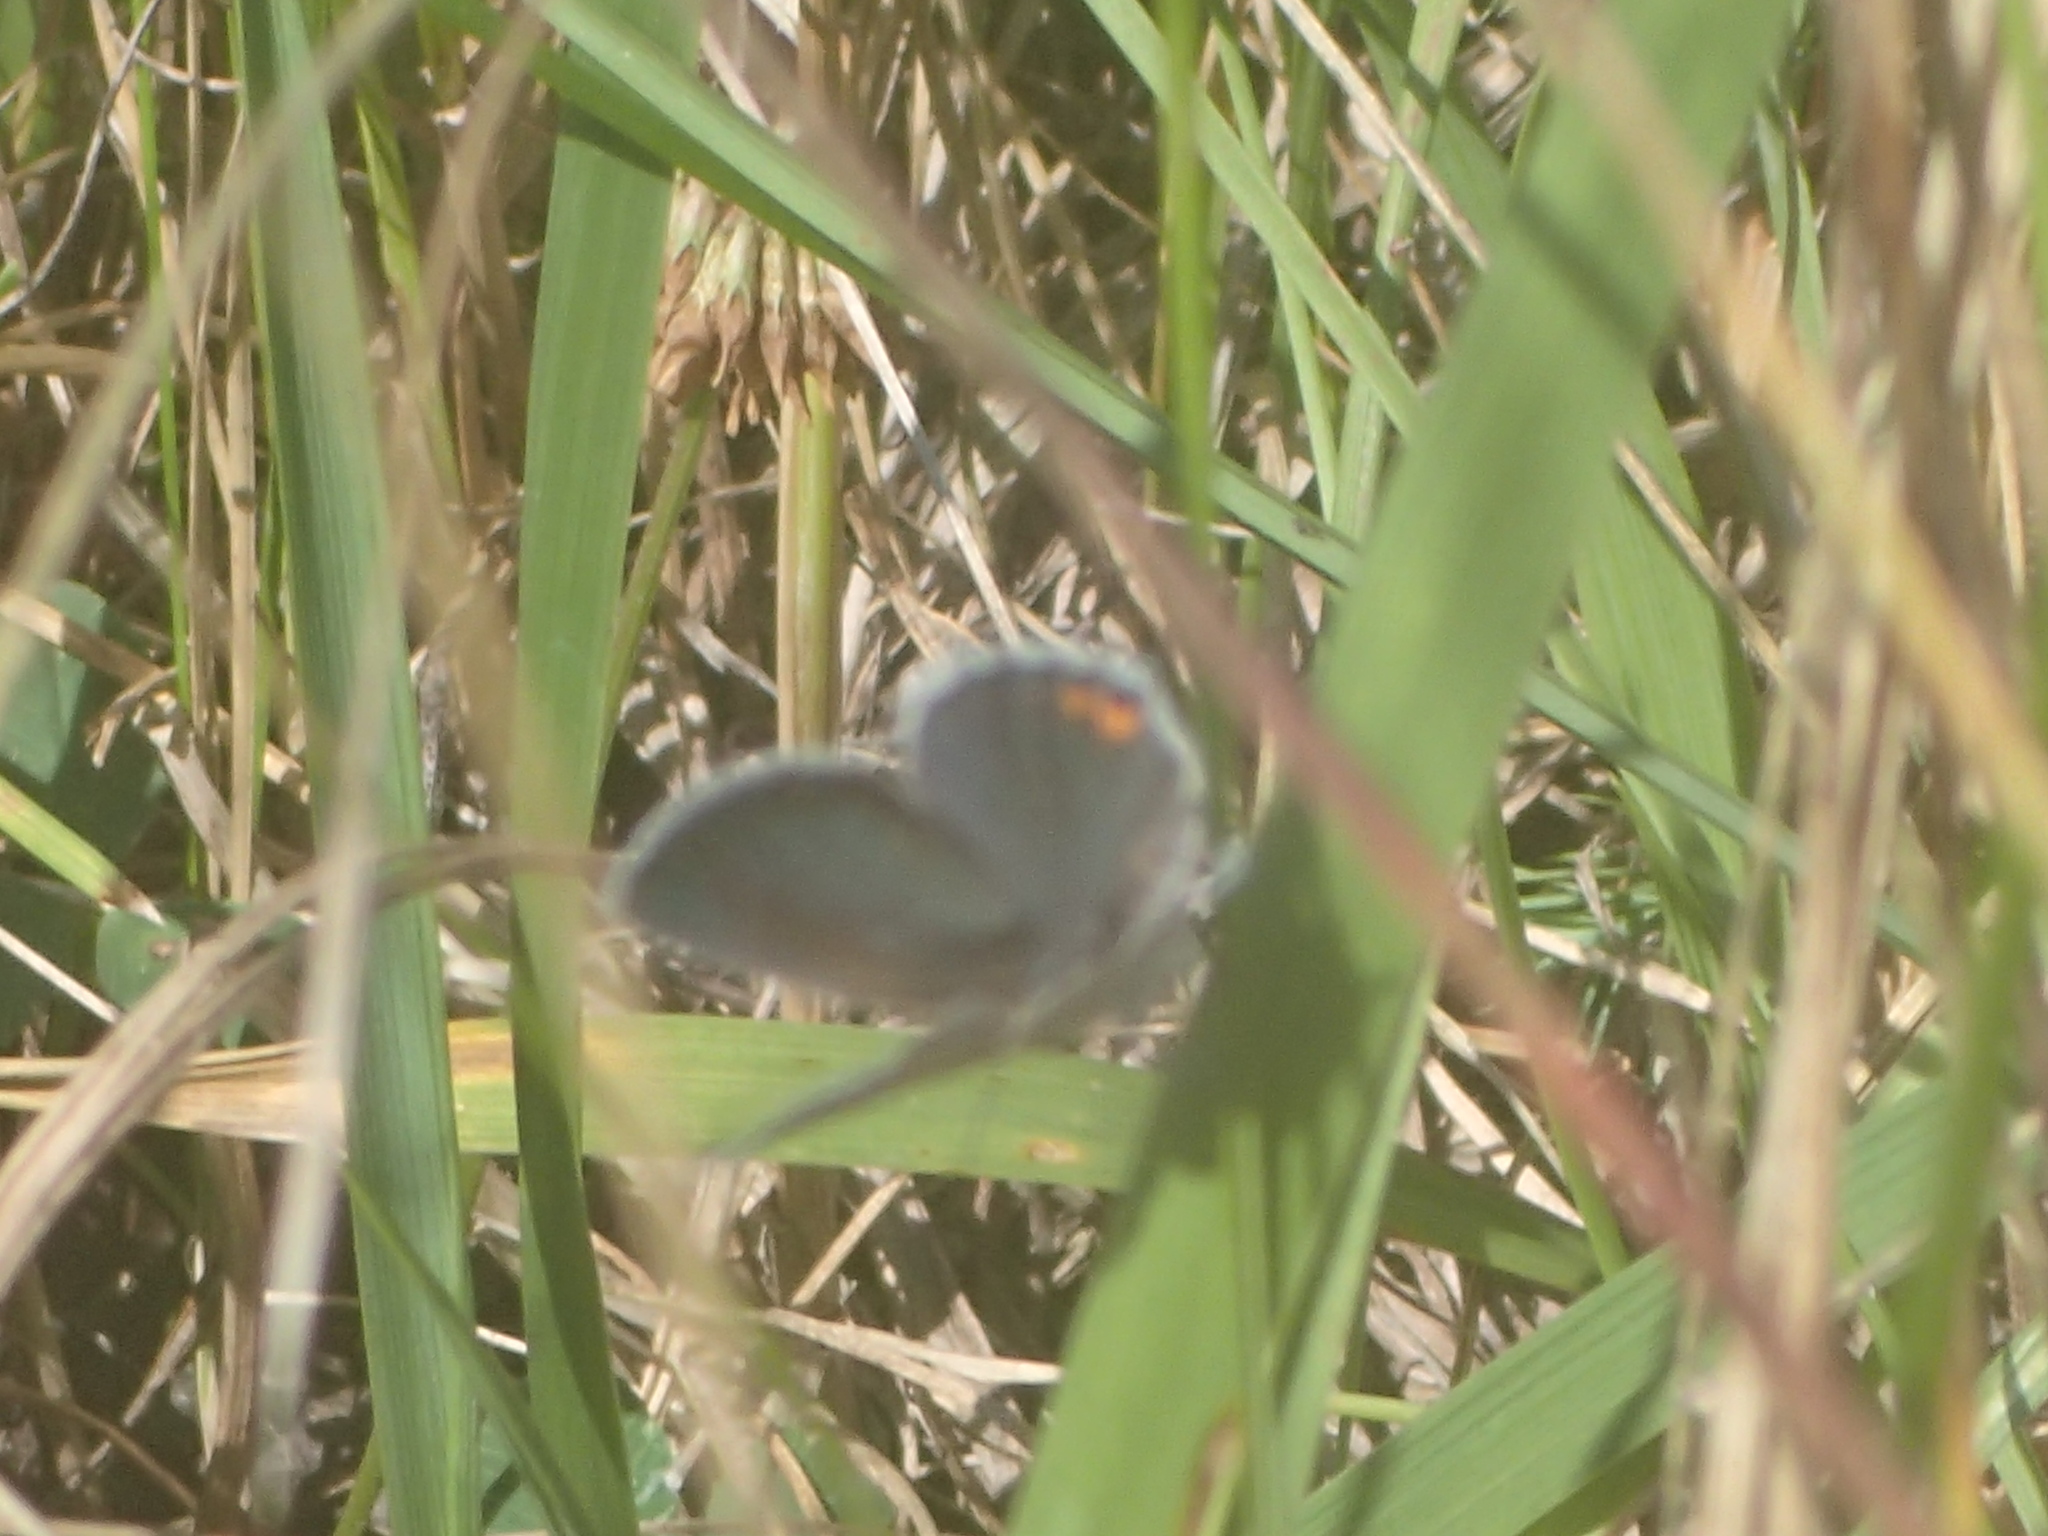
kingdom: Animalia
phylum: Arthropoda
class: Insecta
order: Lepidoptera
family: Lycaenidae
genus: Elkalyce
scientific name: Elkalyce comyntas
